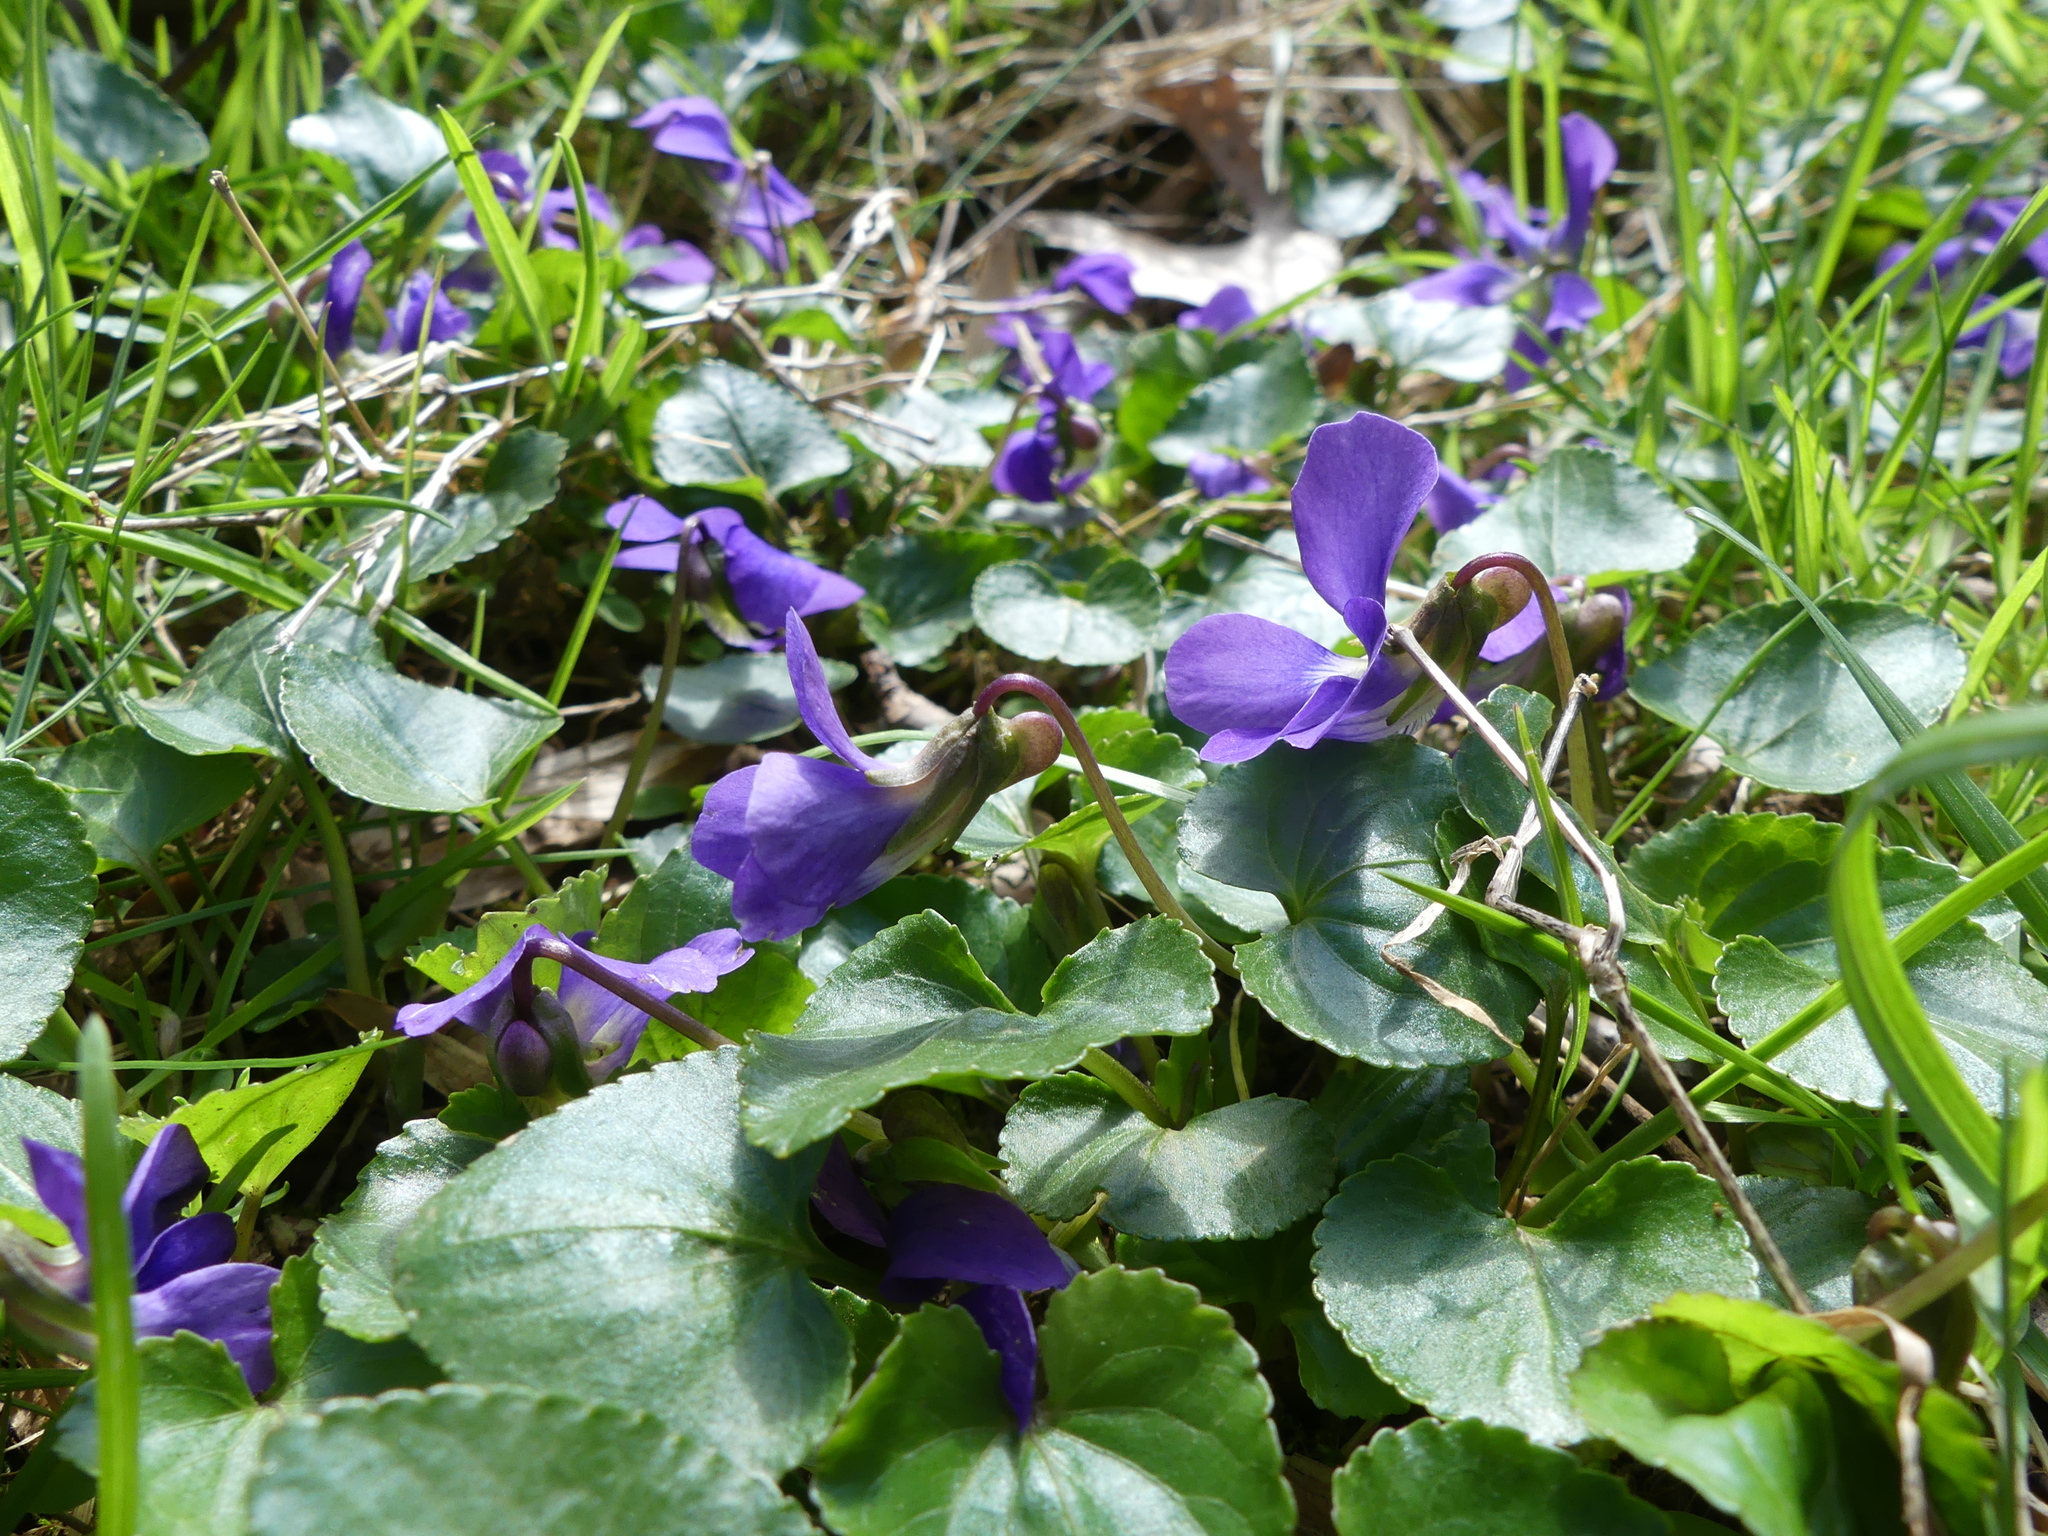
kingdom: Plantae
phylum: Tracheophyta
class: Magnoliopsida
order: Malpighiales
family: Violaceae
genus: Viola
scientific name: Viola sororia
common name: Dooryard violet
